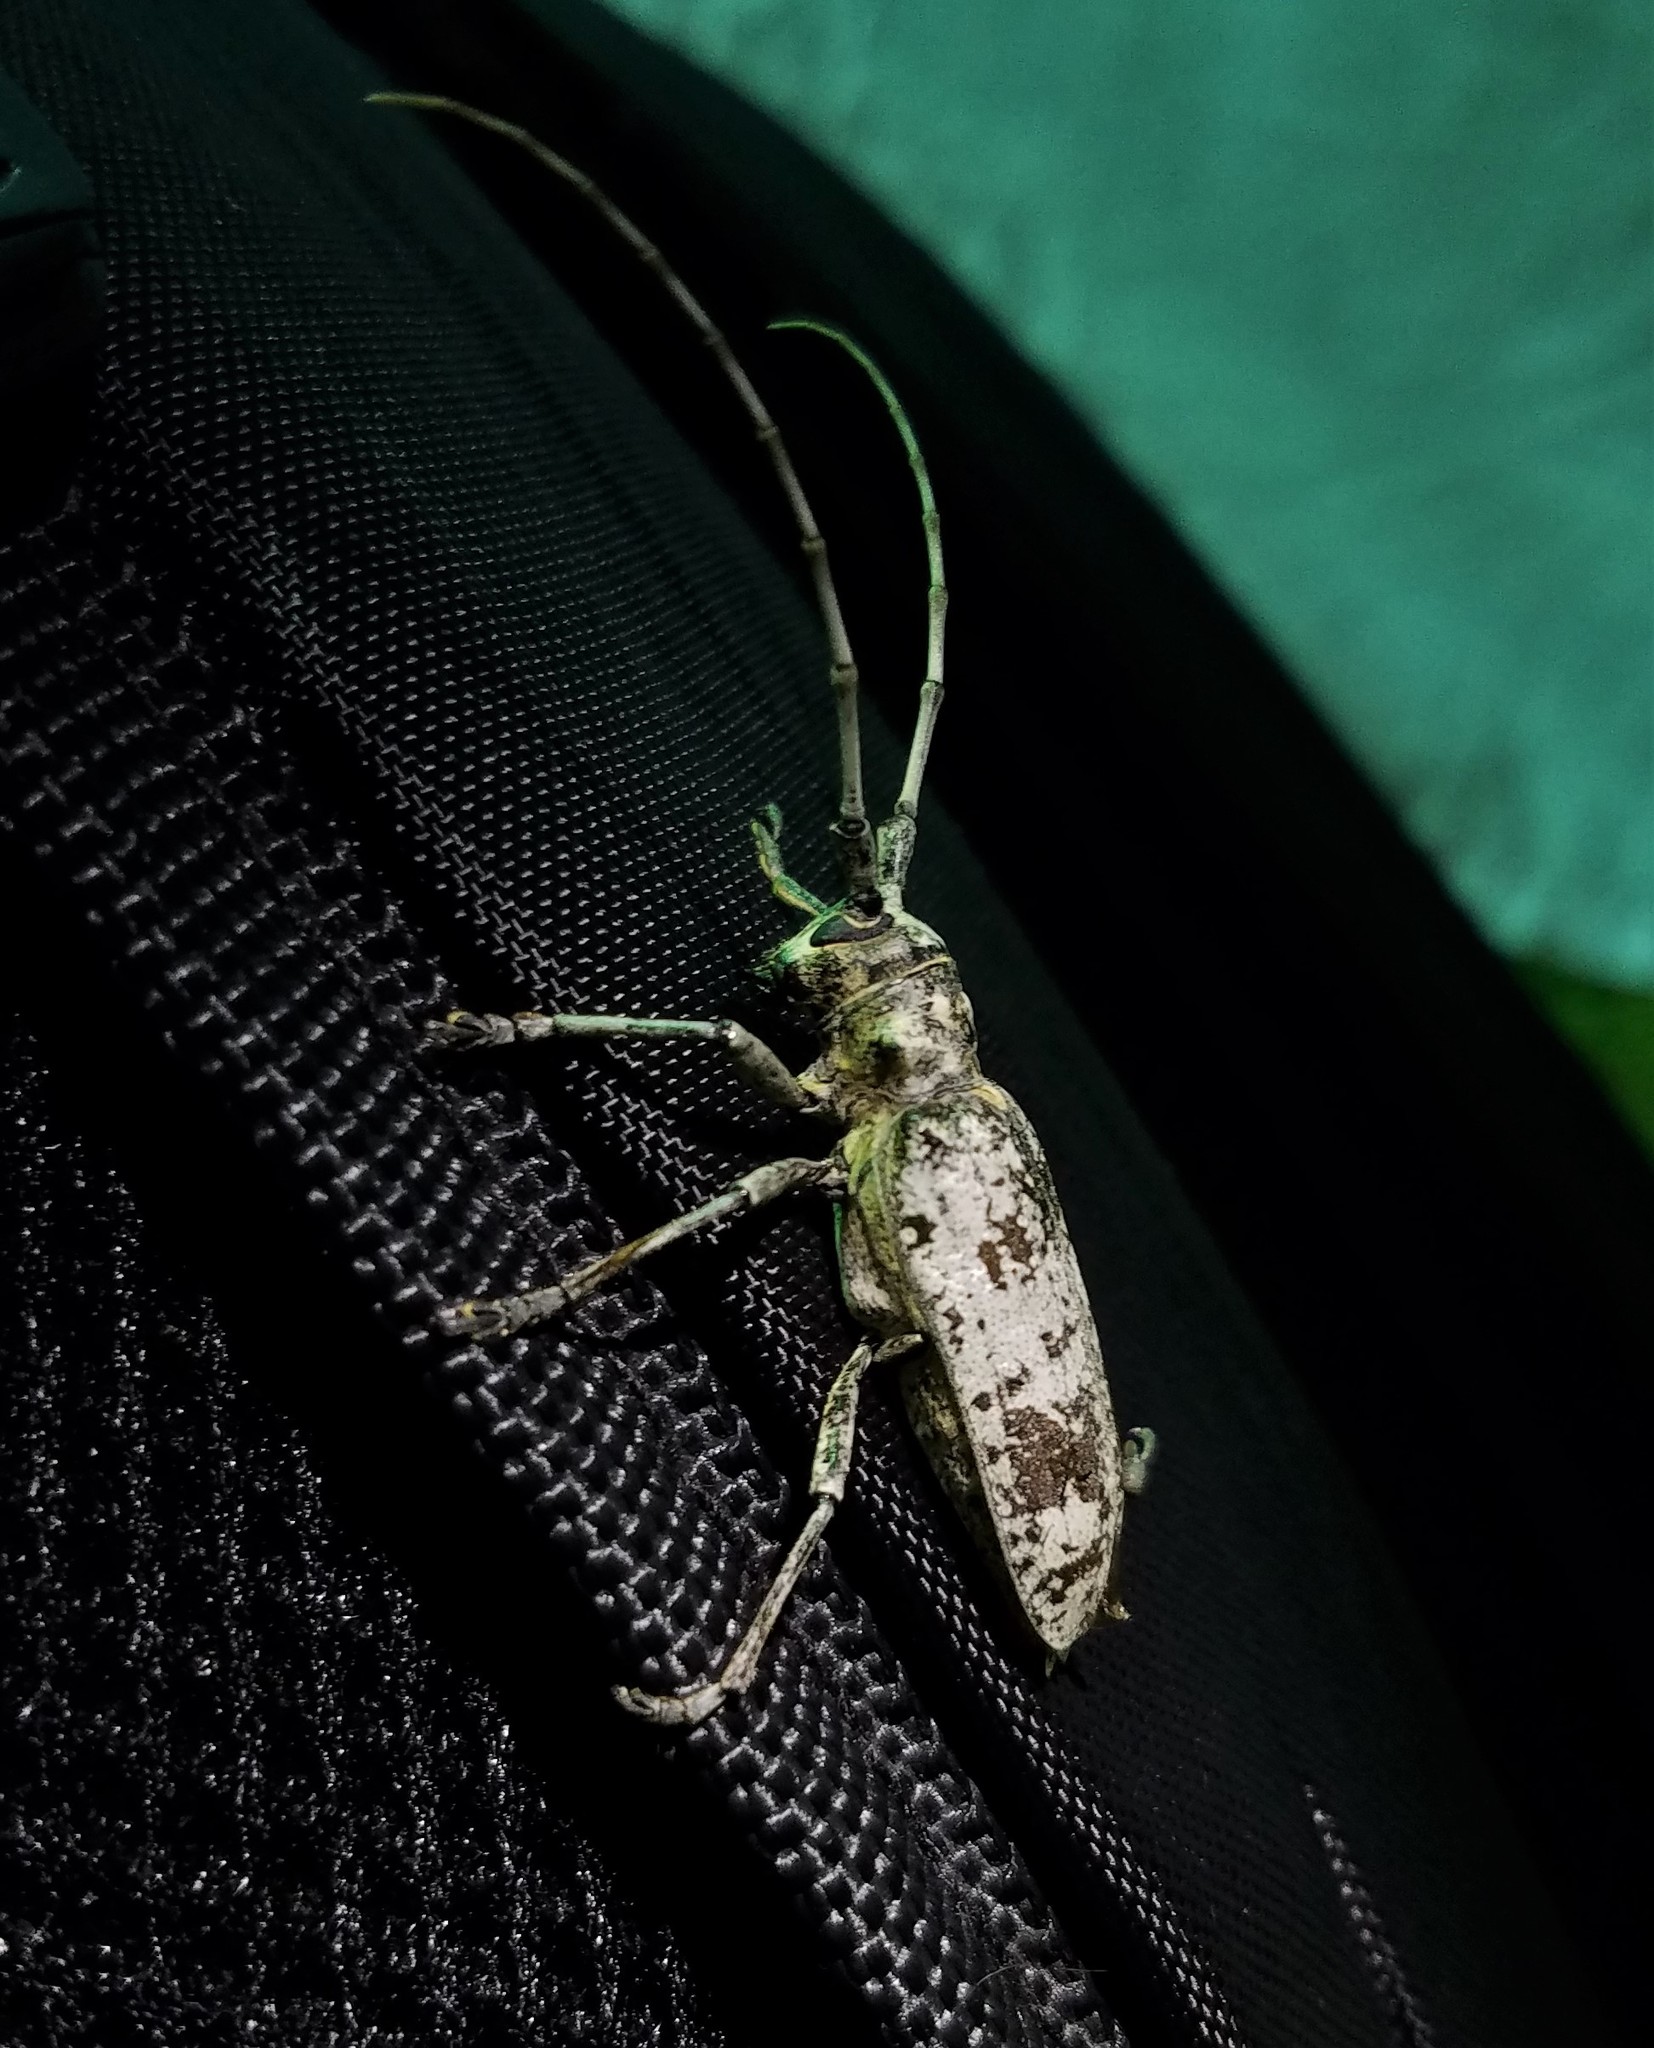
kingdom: Animalia
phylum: Arthropoda
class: Insecta
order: Coleoptera
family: Cerambycidae
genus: Goes
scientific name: Goes tigrinus
